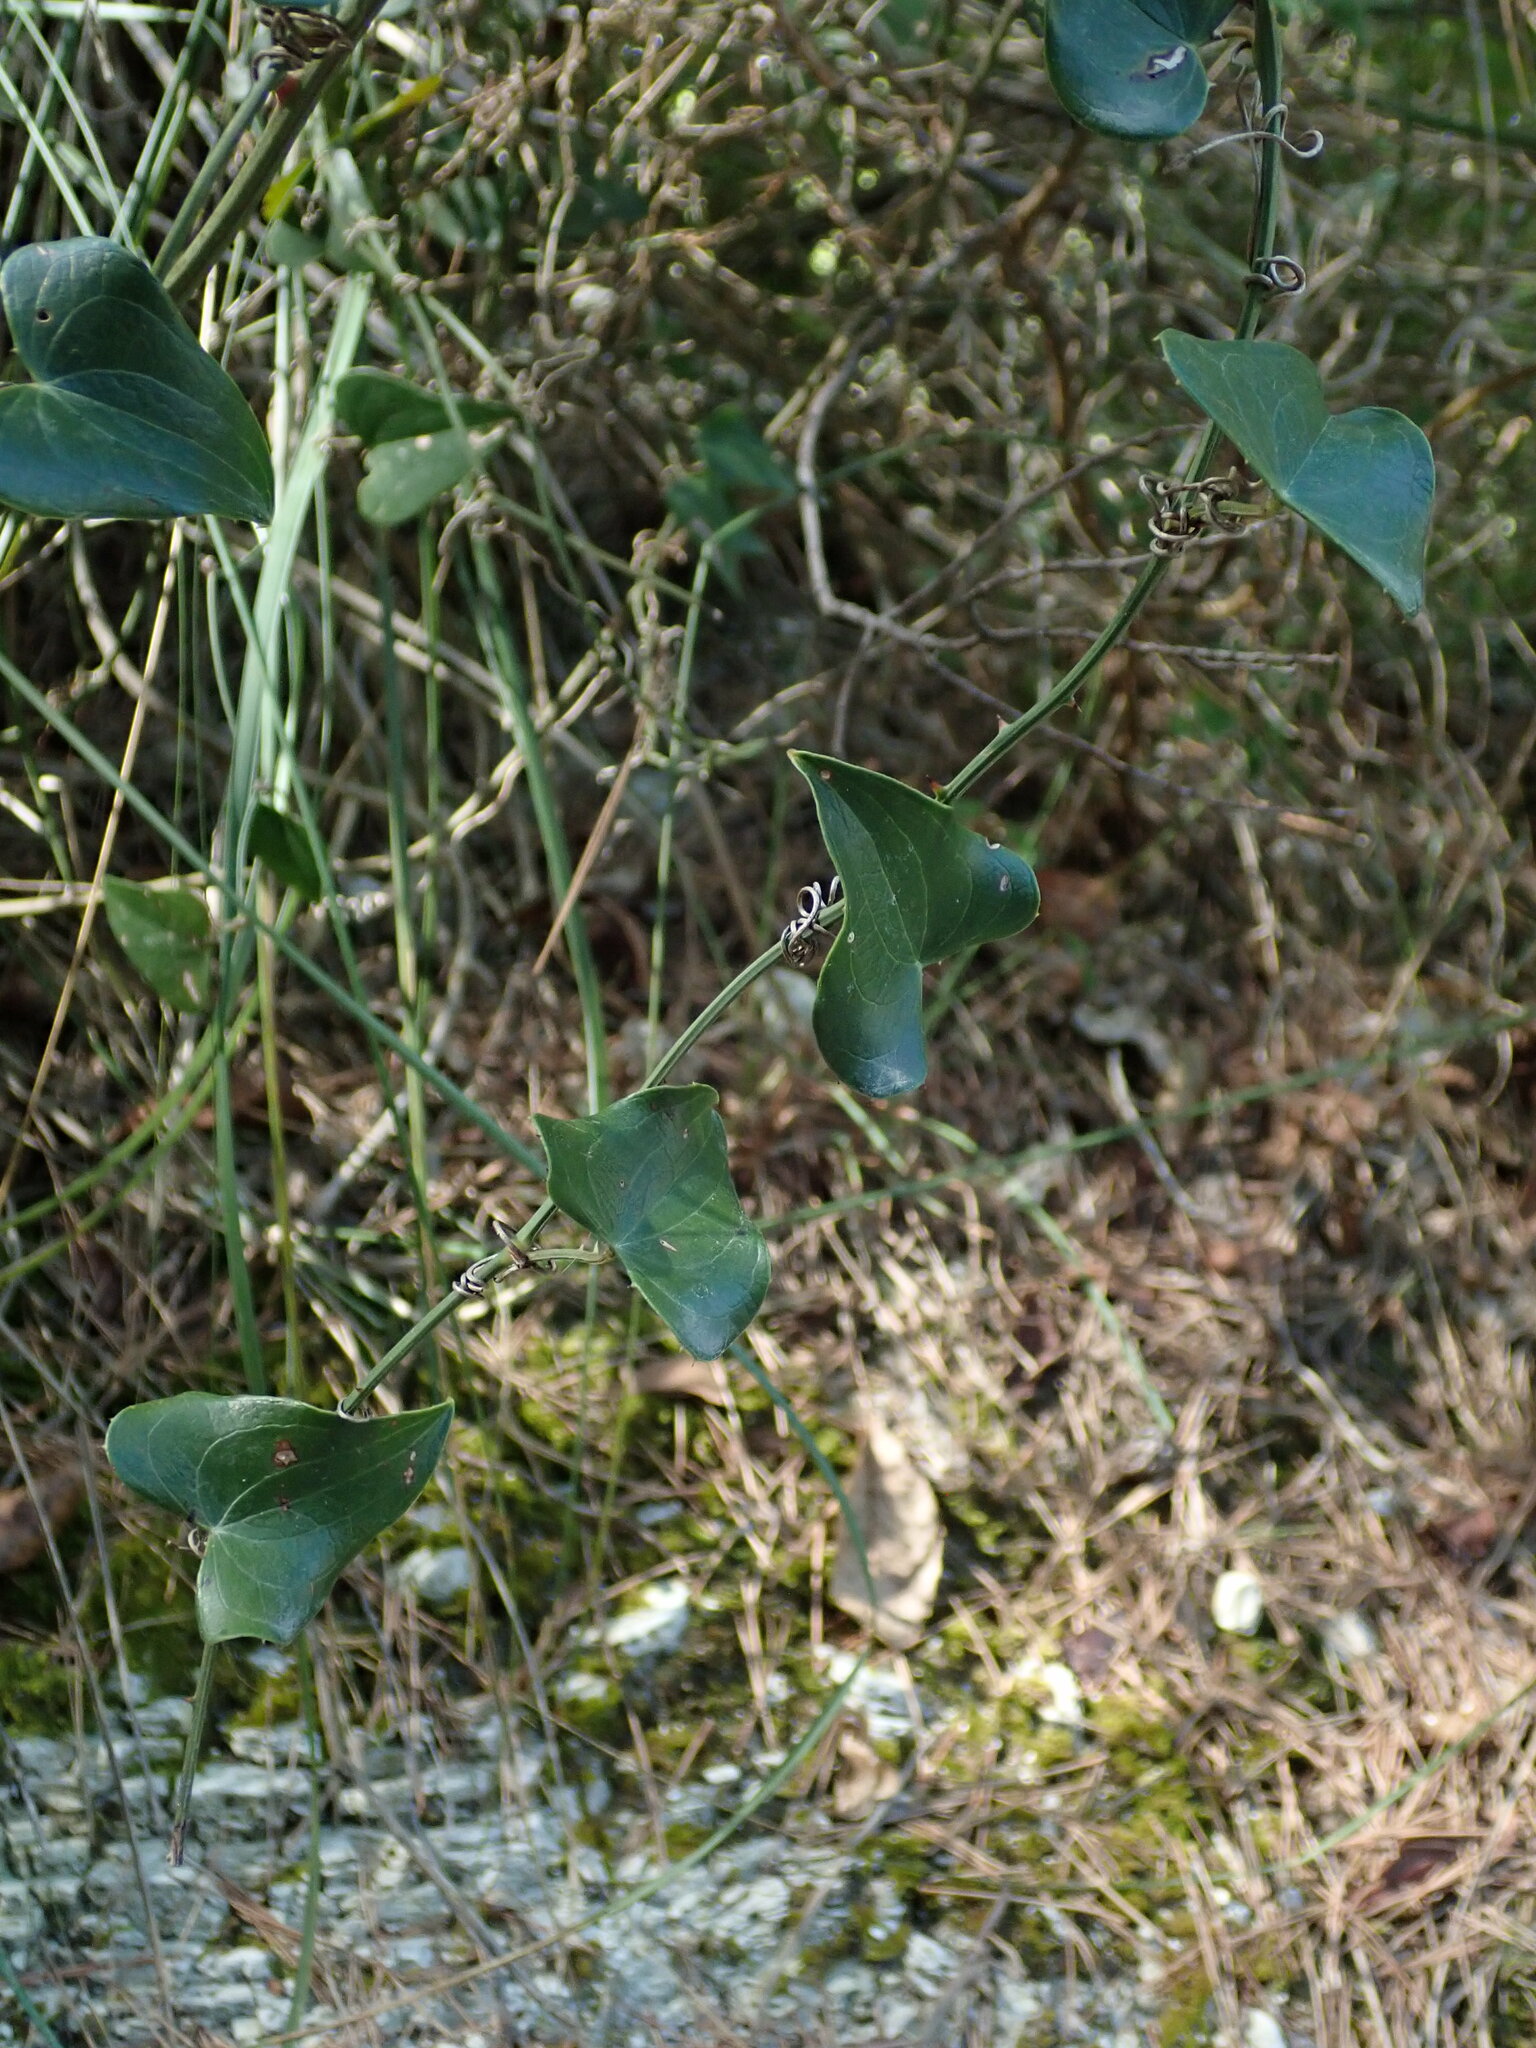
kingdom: Plantae
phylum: Tracheophyta
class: Liliopsida
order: Liliales
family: Smilacaceae
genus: Smilax
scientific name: Smilax aspera
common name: Common smilax
